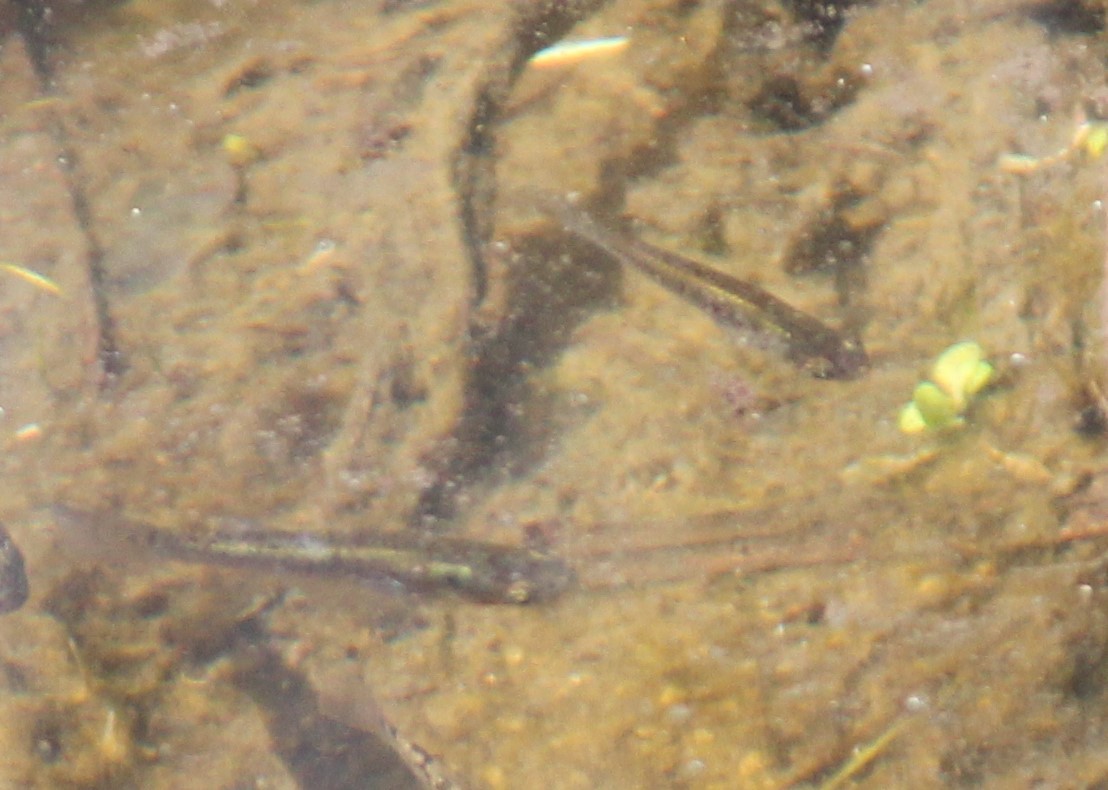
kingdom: Animalia
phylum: Chordata
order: Cyprinodontiformes
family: Poeciliidae
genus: Gambusia
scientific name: Gambusia holbrooki
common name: Eastern mosquitofish
